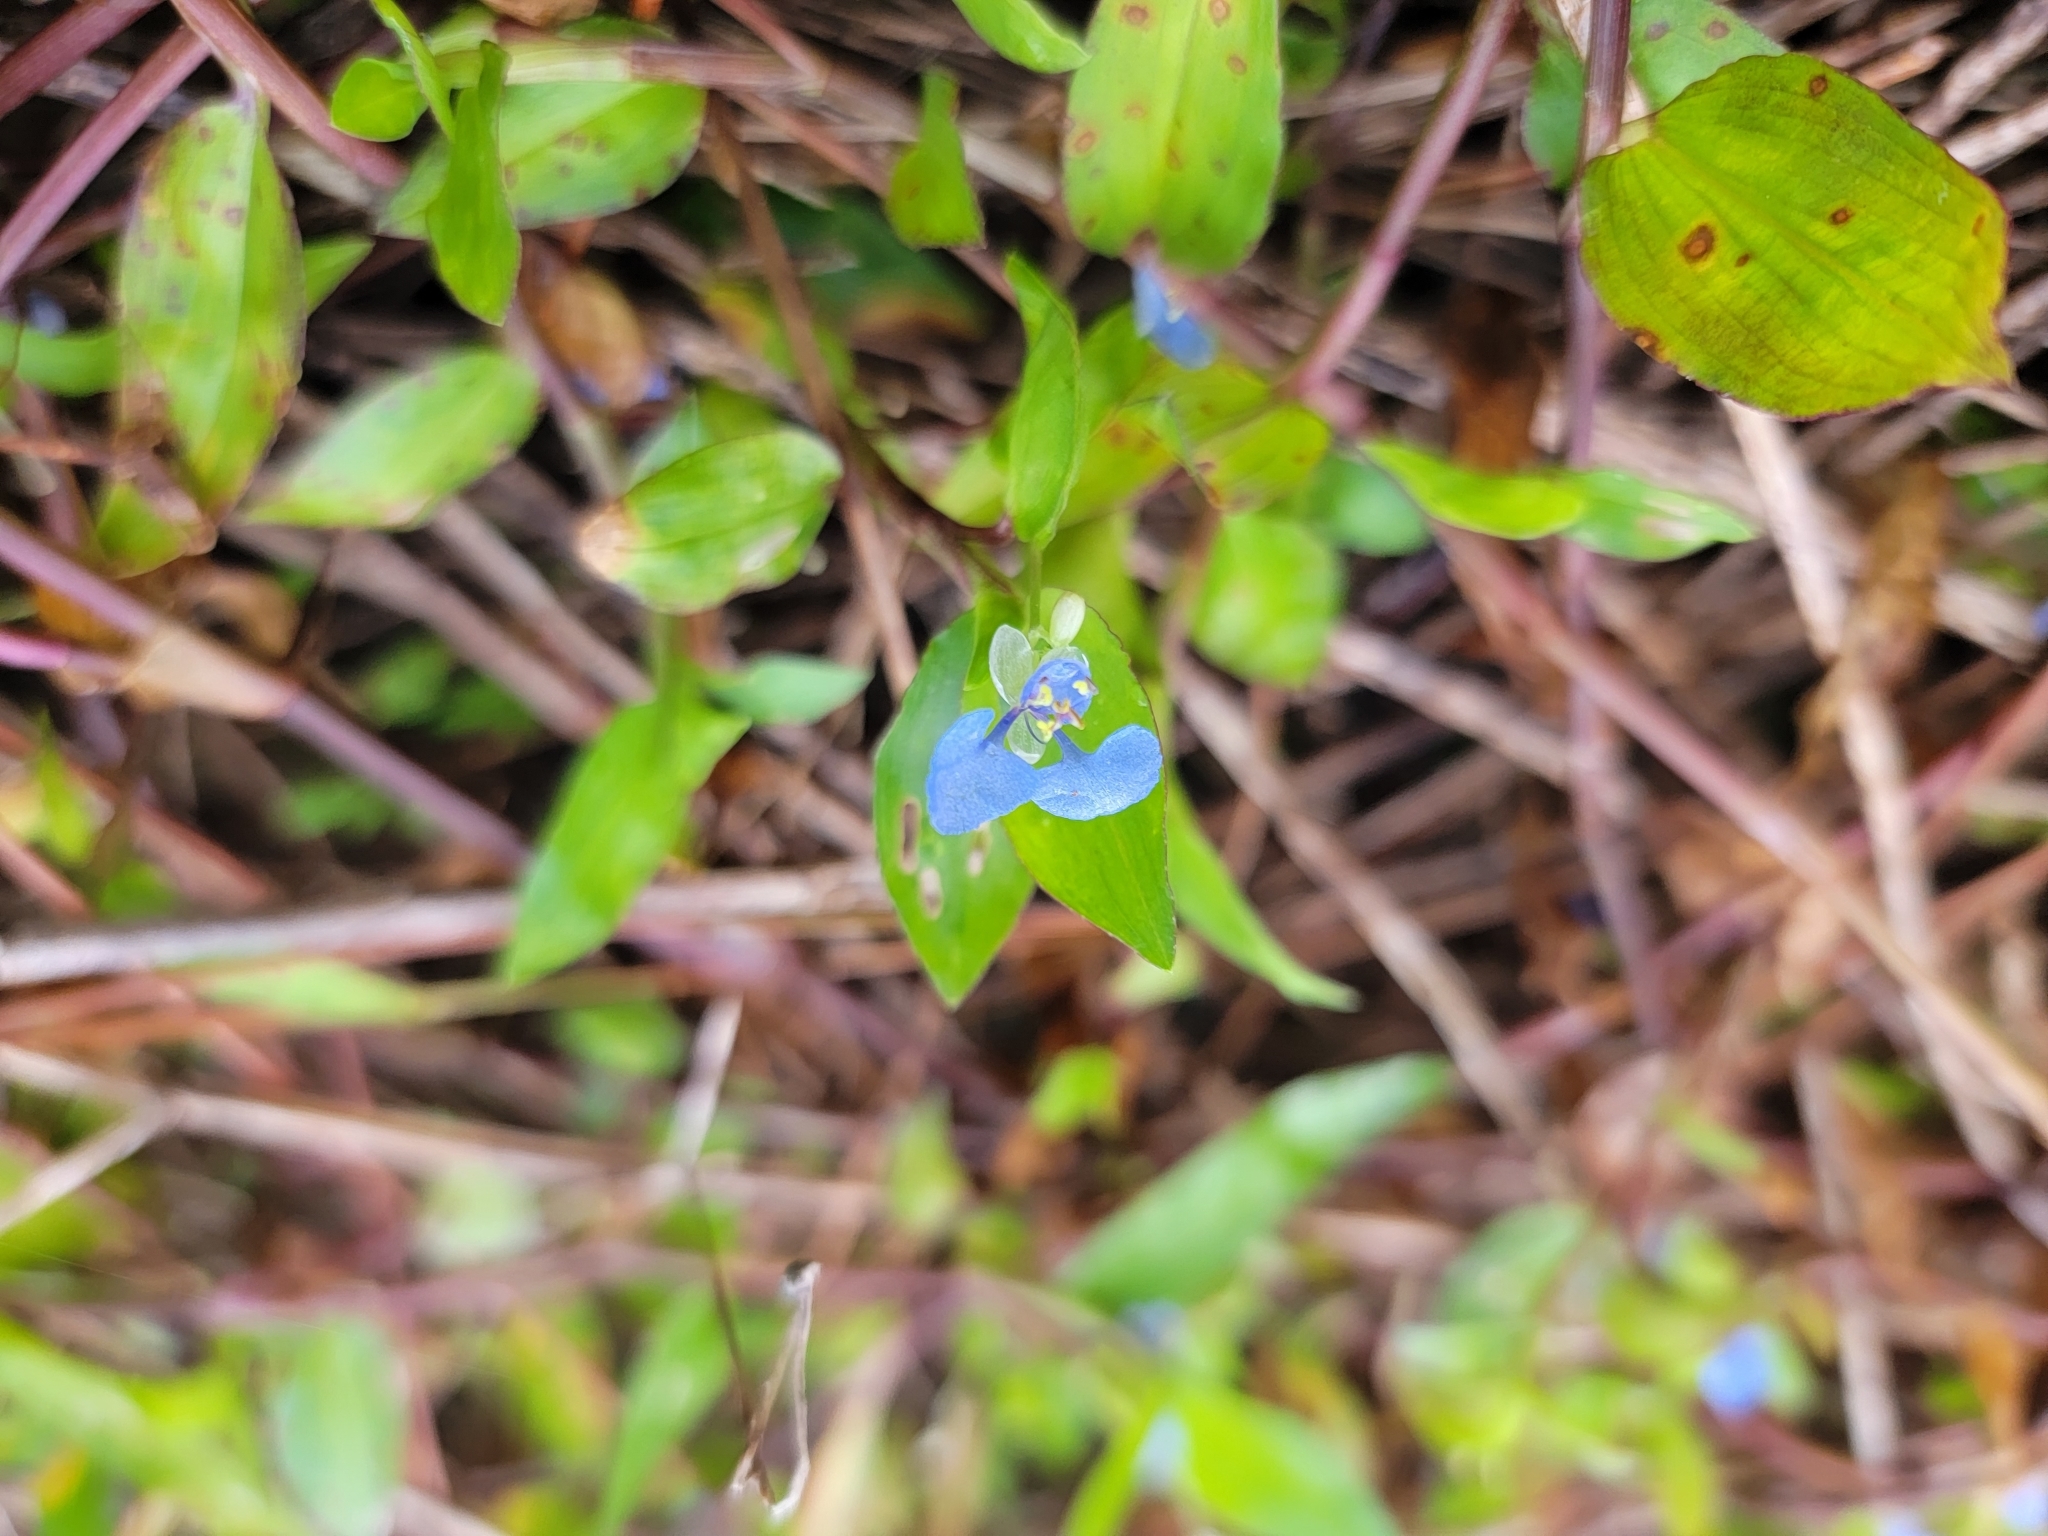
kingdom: Plantae
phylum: Tracheophyta
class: Liliopsida
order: Commelinales
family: Commelinaceae
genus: Commelina
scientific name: Commelina diffusa
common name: Climbing dayflower
